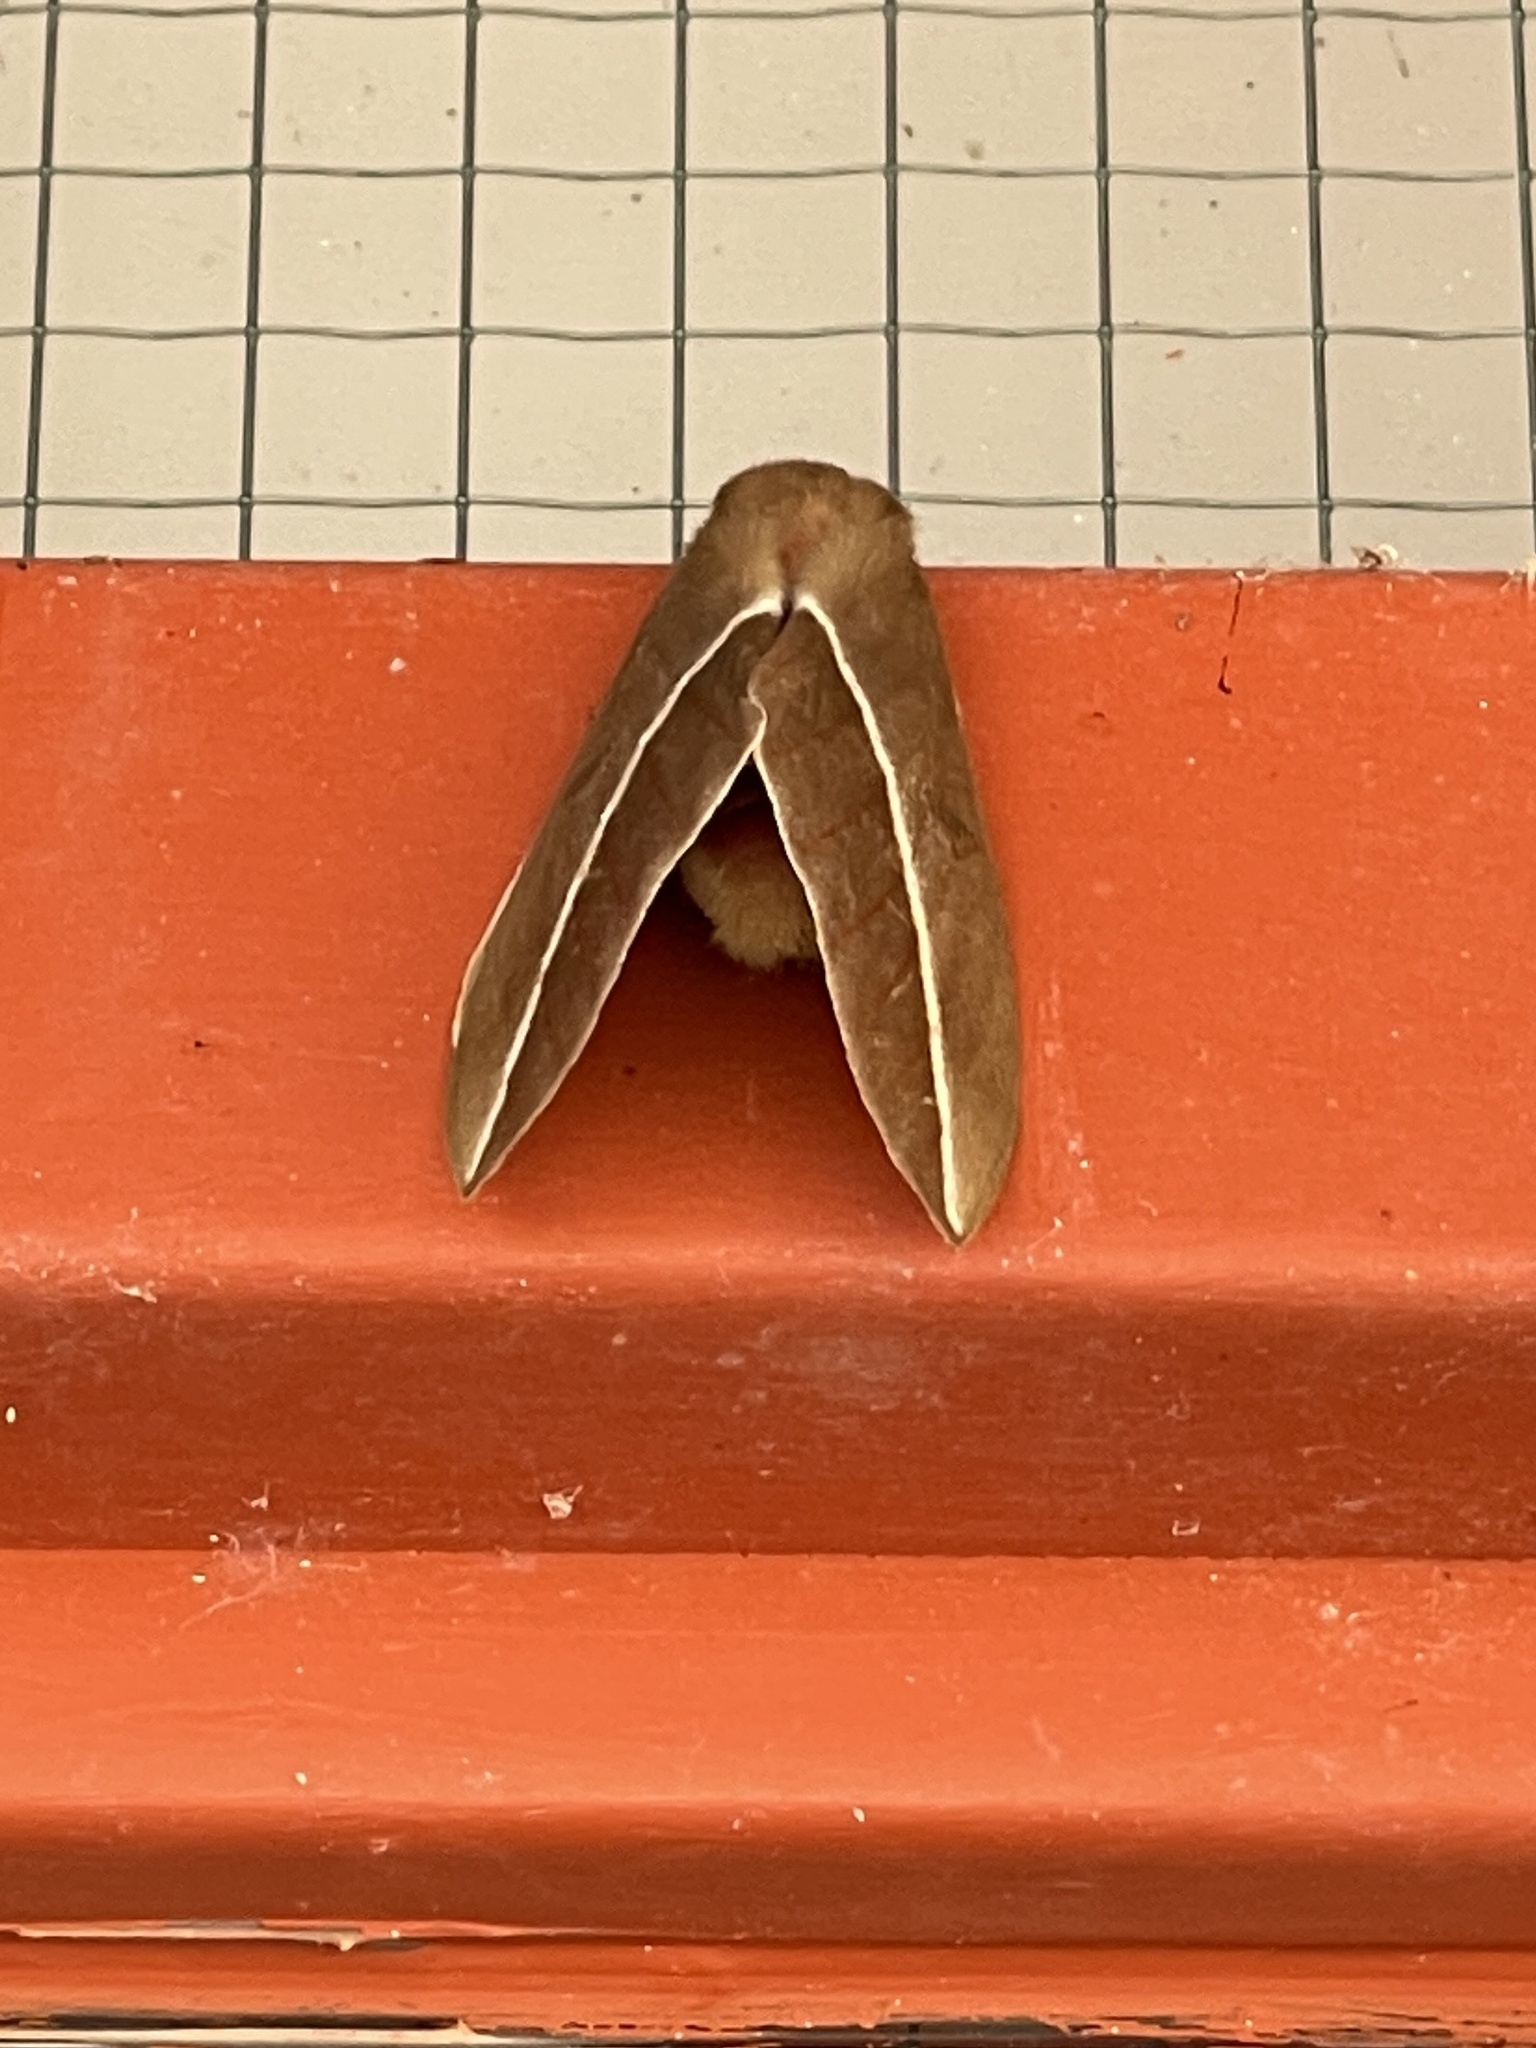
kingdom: Animalia
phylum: Arthropoda
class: Insecta
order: Lepidoptera
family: Saturniidae
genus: Automeris
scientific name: Automeris zephyria
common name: Zephyr eyed silkmoth
